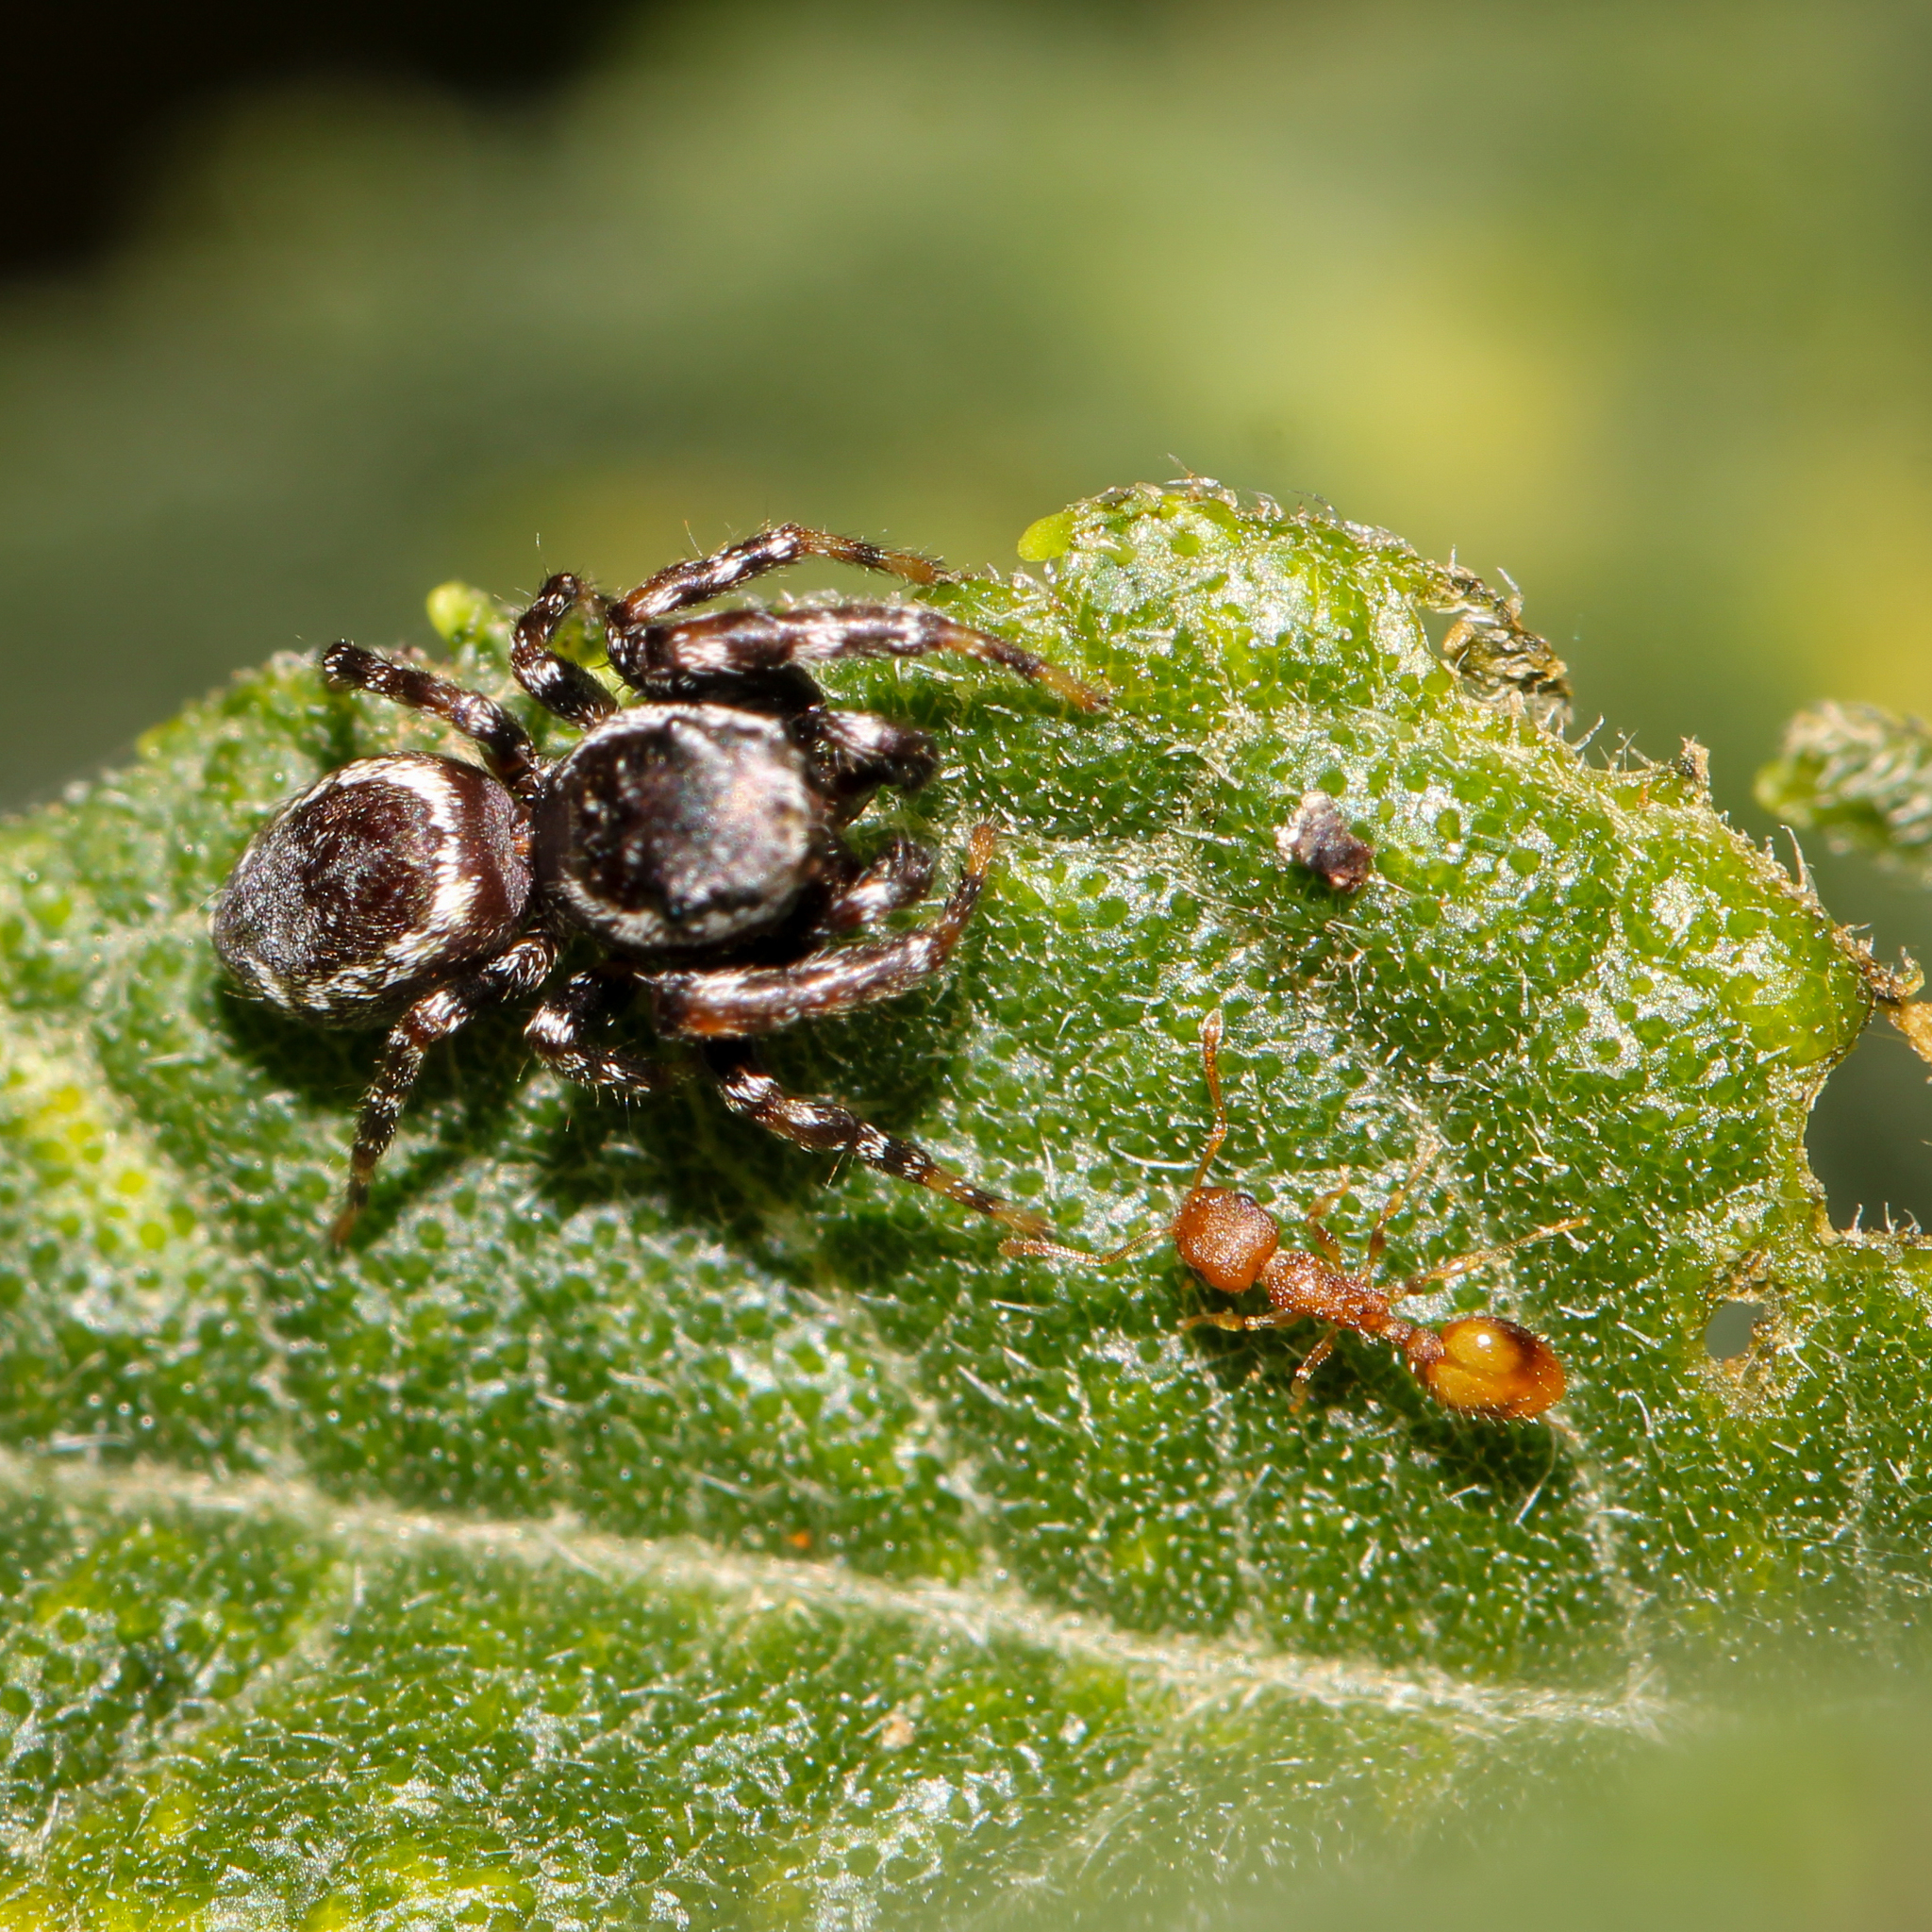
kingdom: Animalia
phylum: Arthropoda
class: Insecta
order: Hymenoptera
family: Formicidae
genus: Temnothorax
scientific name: Temnothorax curvispinosus
